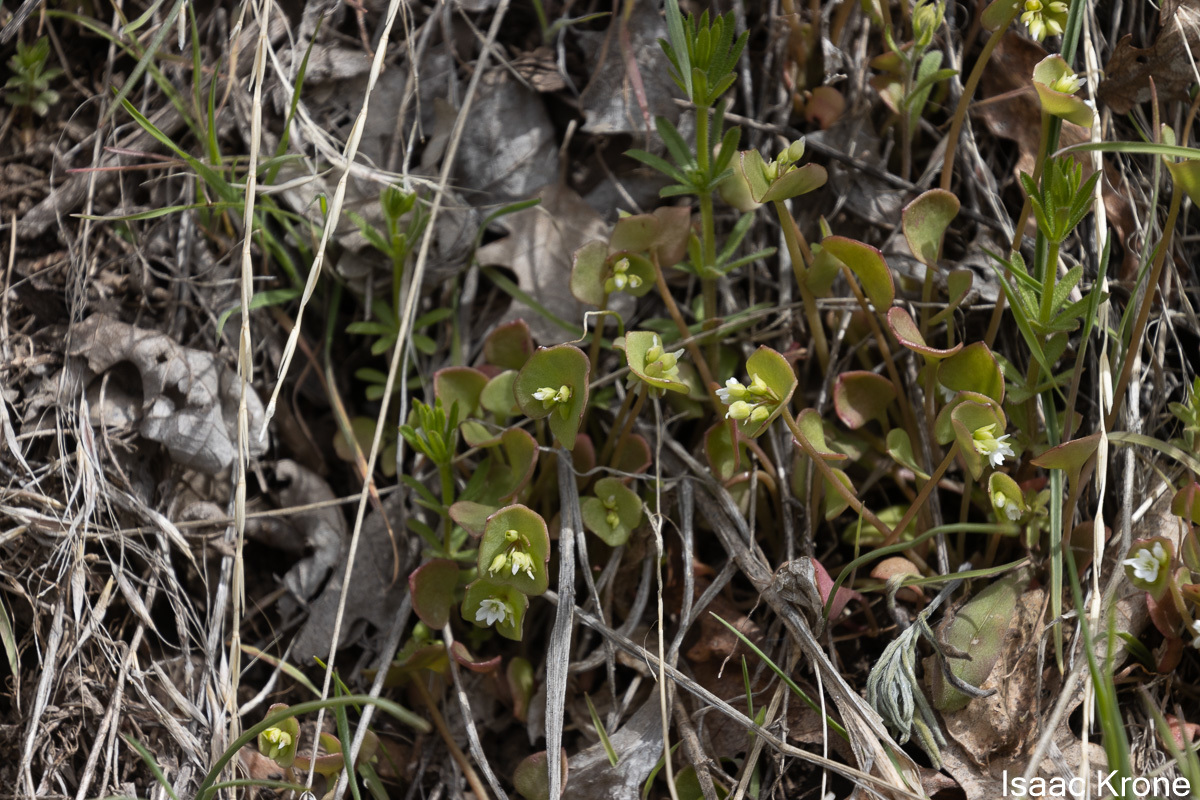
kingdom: Plantae
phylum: Tracheophyta
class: Magnoliopsida
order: Caryophyllales
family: Montiaceae
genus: Claytonia
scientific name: Claytonia perfoliata
